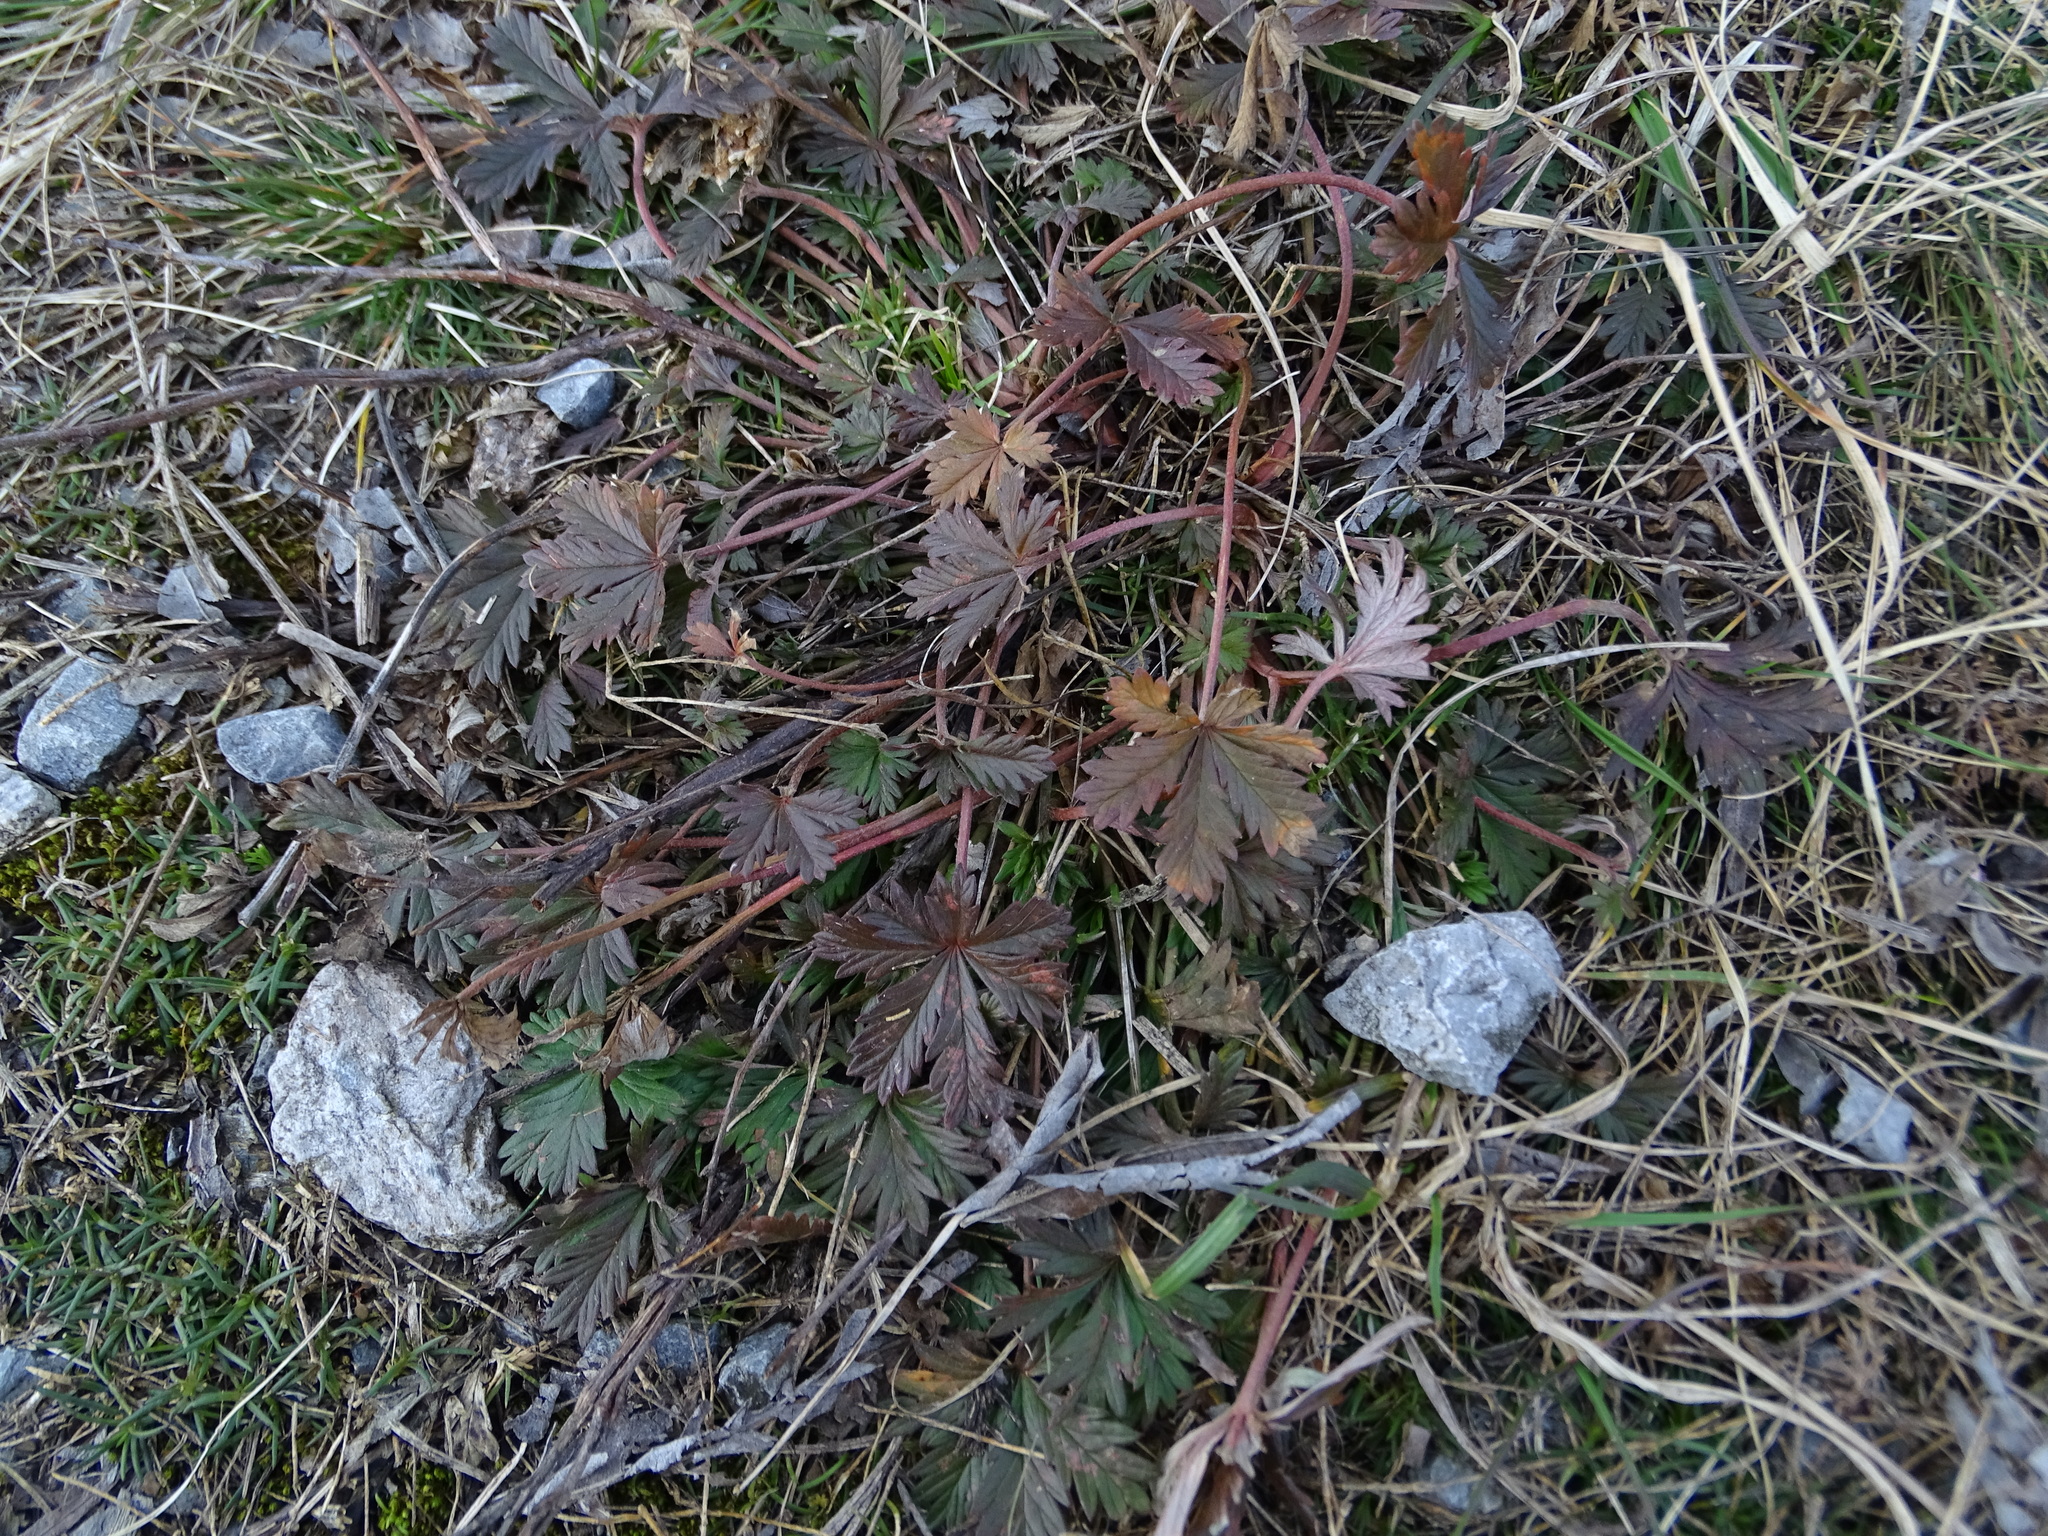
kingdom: Plantae
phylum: Tracheophyta
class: Magnoliopsida
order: Rosales
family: Rosaceae
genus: Potentilla
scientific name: Potentilla argentea
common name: Hoary cinquefoil
